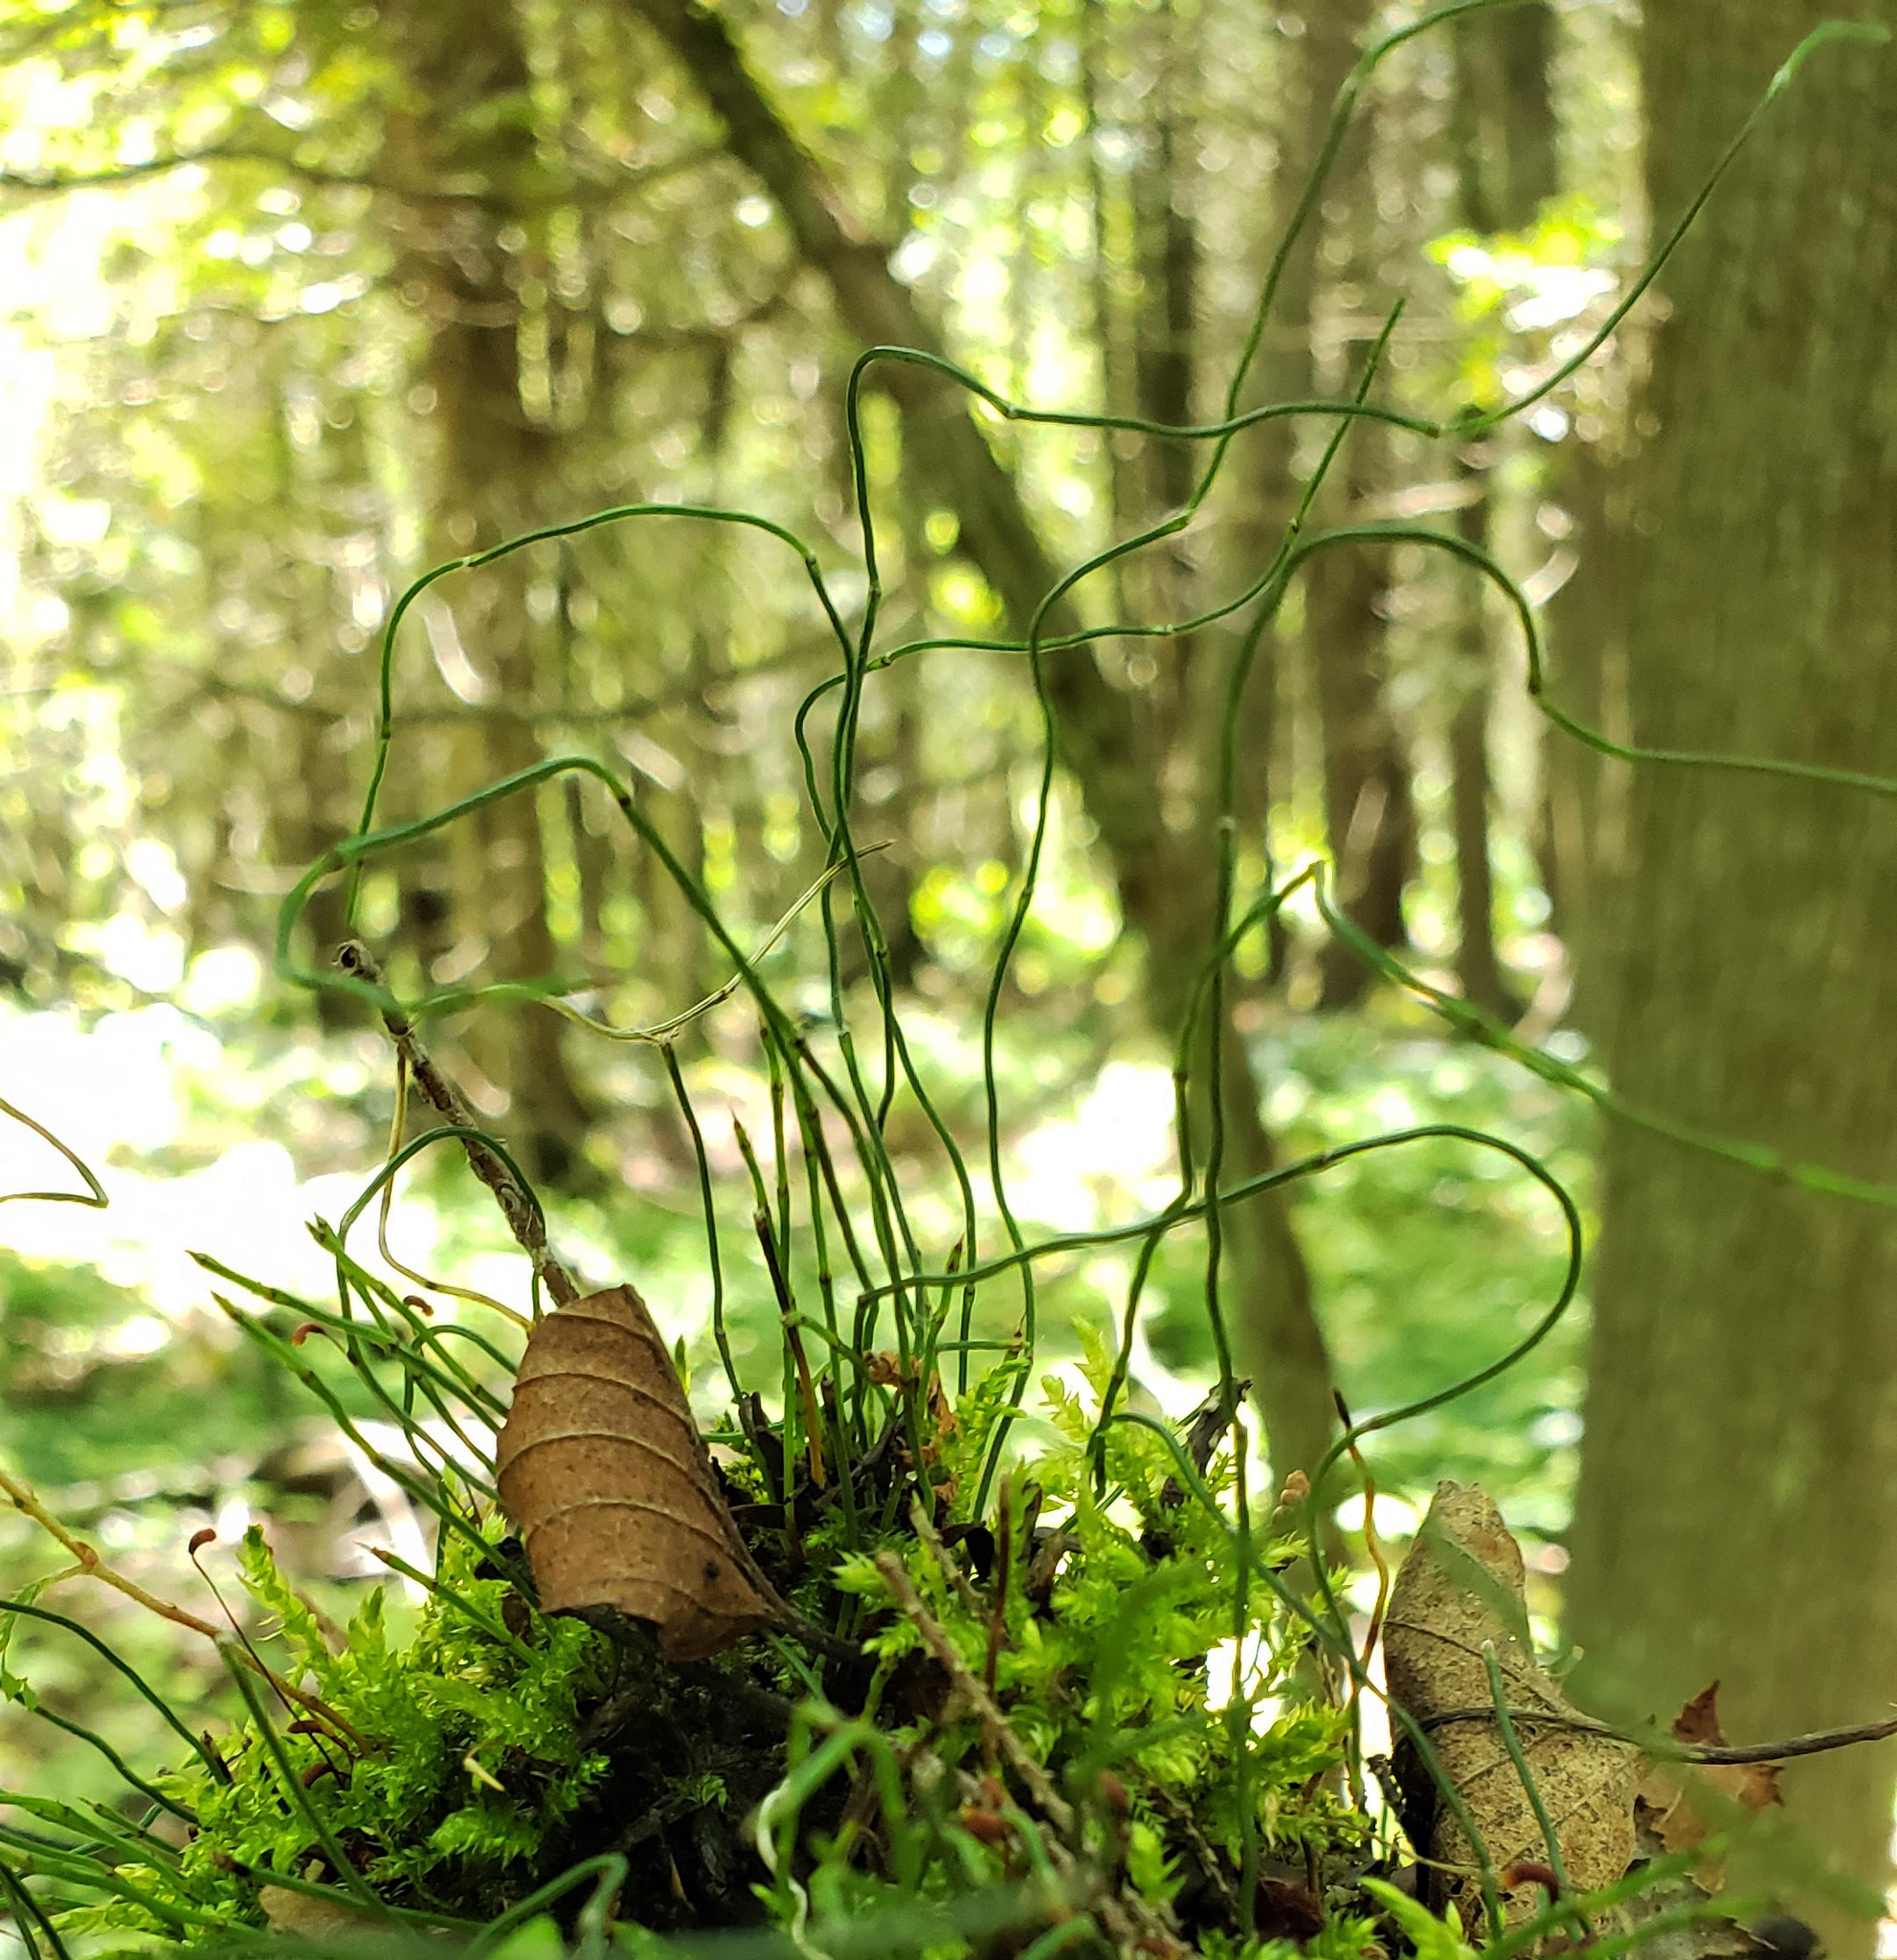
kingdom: Plantae
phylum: Tracheophyta
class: Polypodiopsida
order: Equisetales
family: Equisetaceae
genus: Equisetum
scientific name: Equisetum scirpoides
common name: Delicate horsetail
